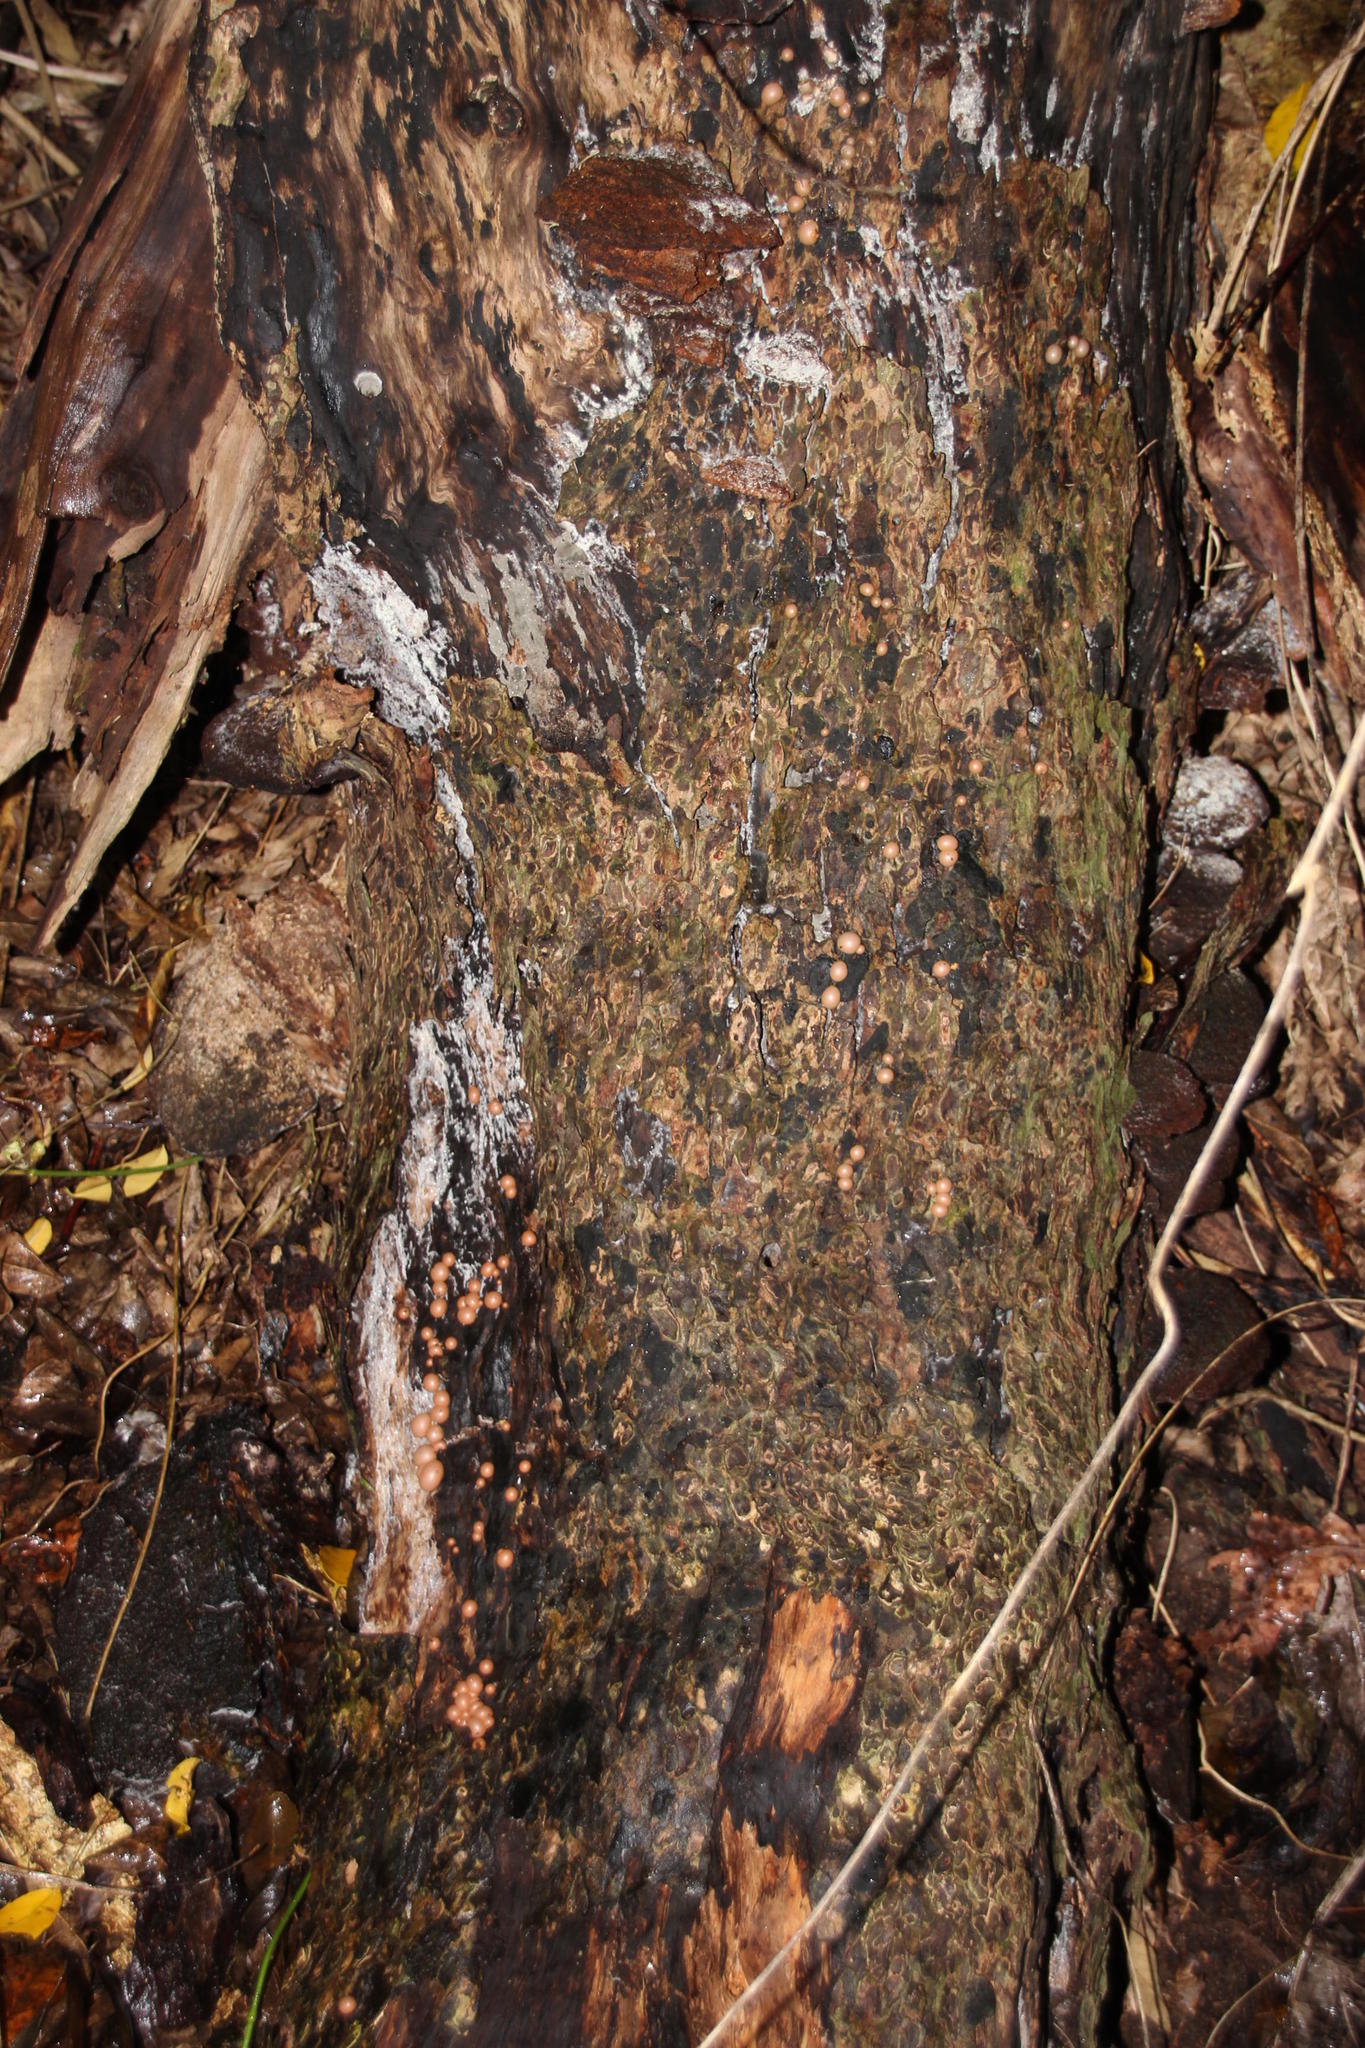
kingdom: Protozoa
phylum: Mycetozoa
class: Myxomycetes
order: Cribrariales
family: Tubiferaceae
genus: Lycogala
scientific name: Lycogala epidendrum
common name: Wolf's milk
